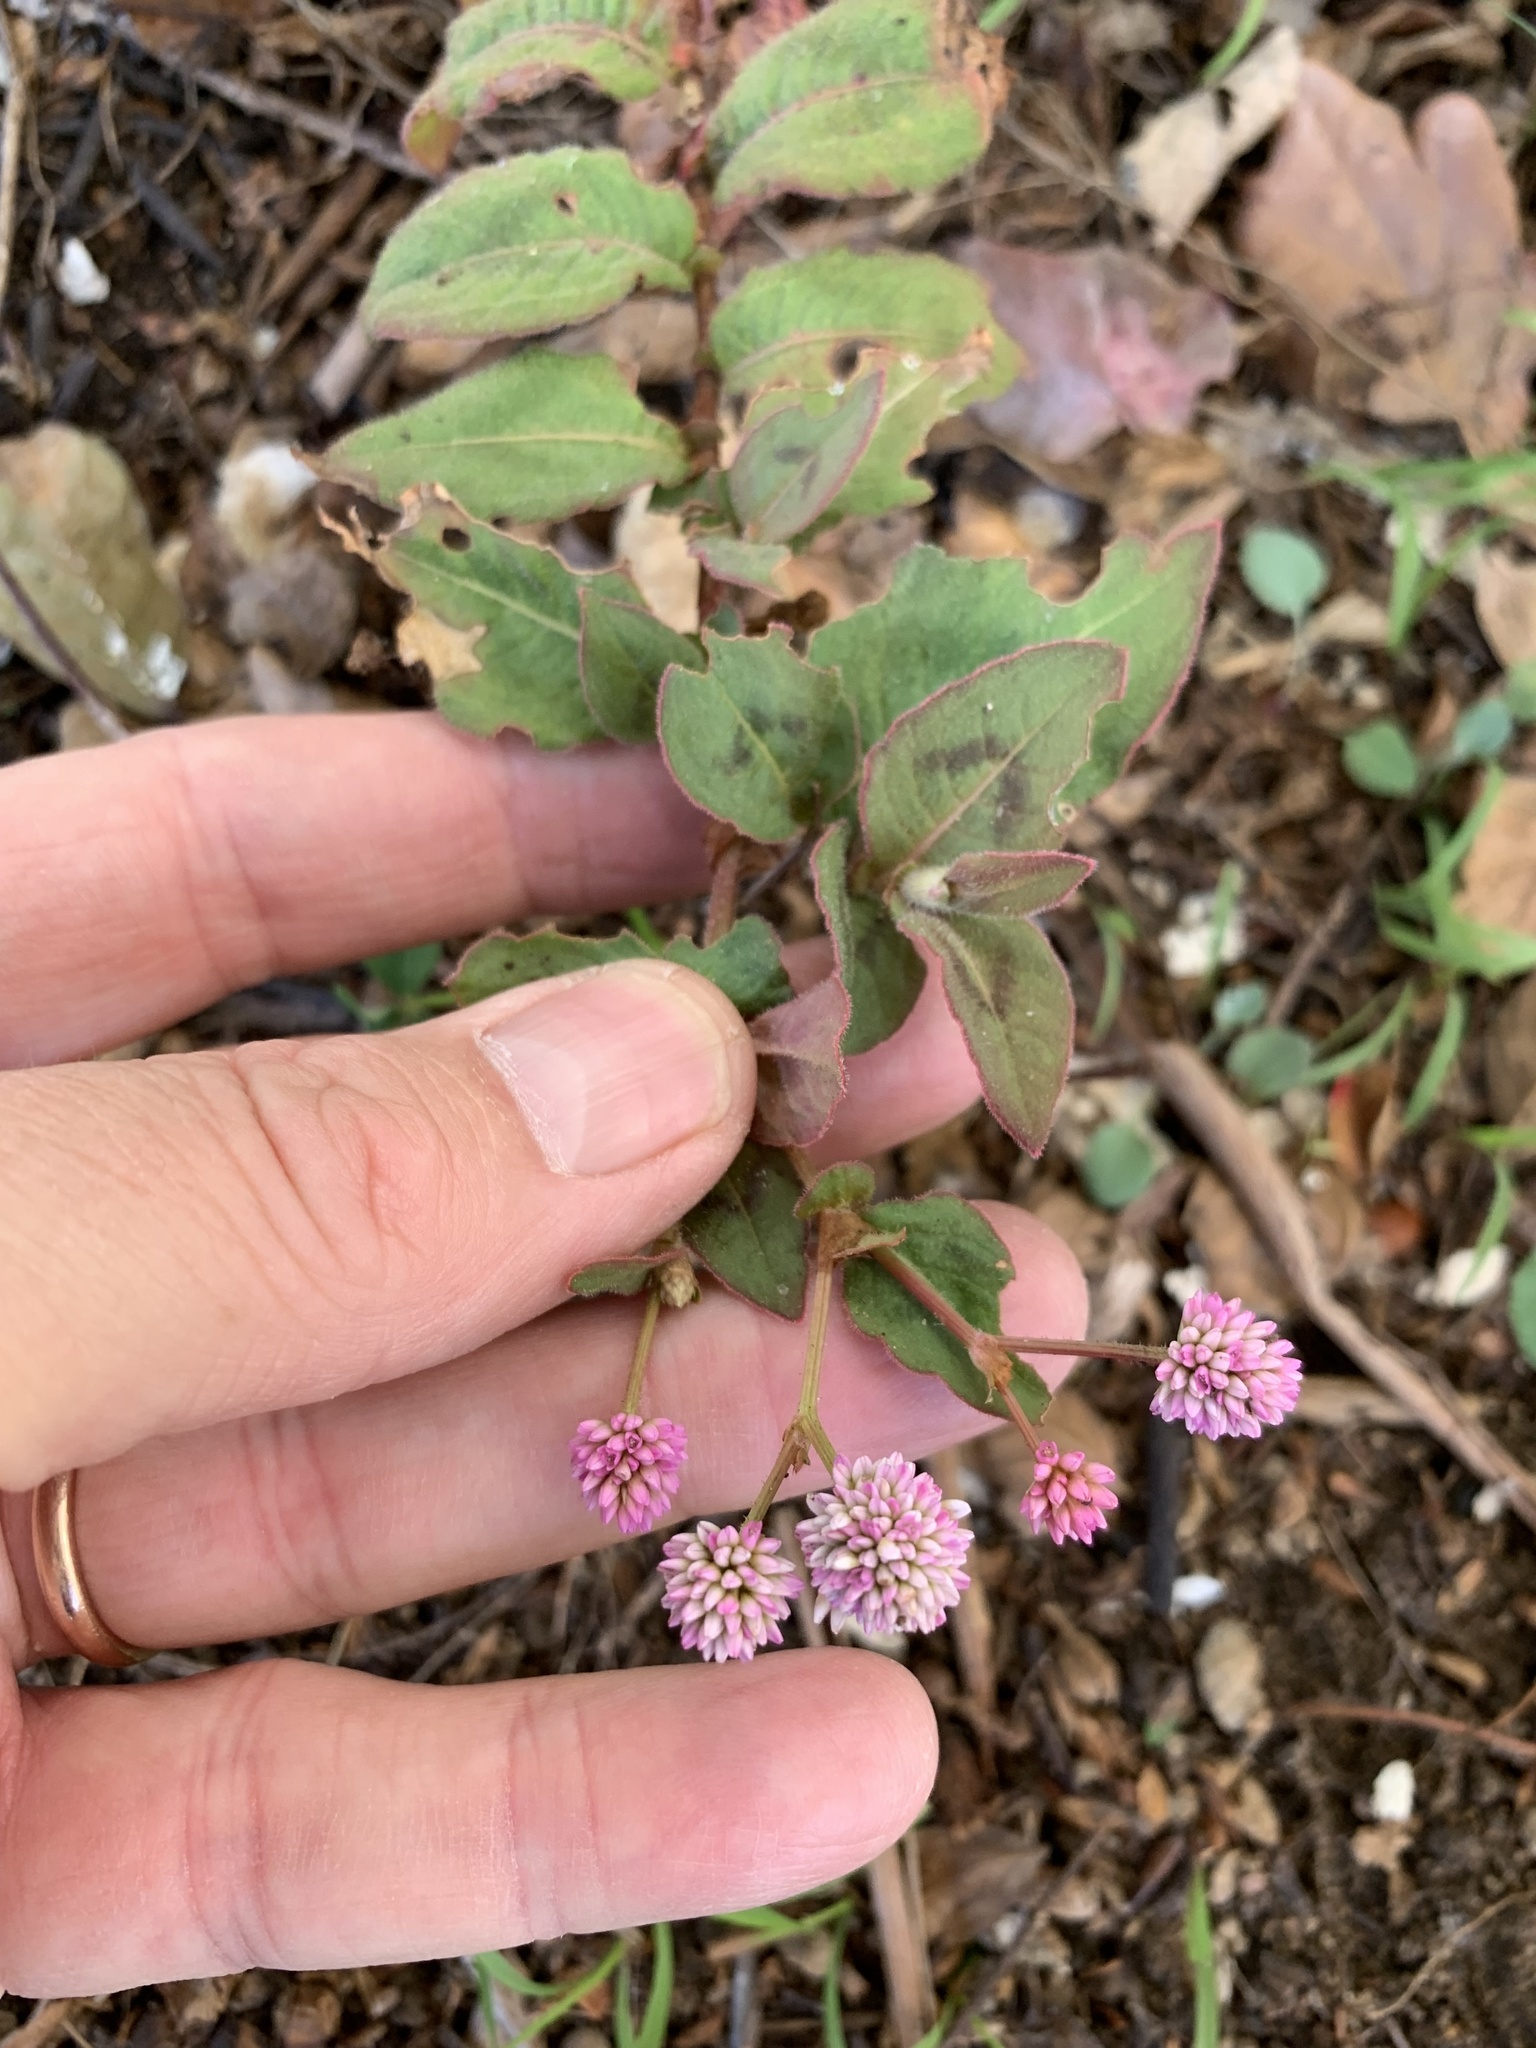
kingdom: Plantae
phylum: Tracheophyta
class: Magnoliopsida
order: Caryophyllales
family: Polygonaceae
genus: Persicaria
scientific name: Persicaria capitata
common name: Pinkhead smartweed
